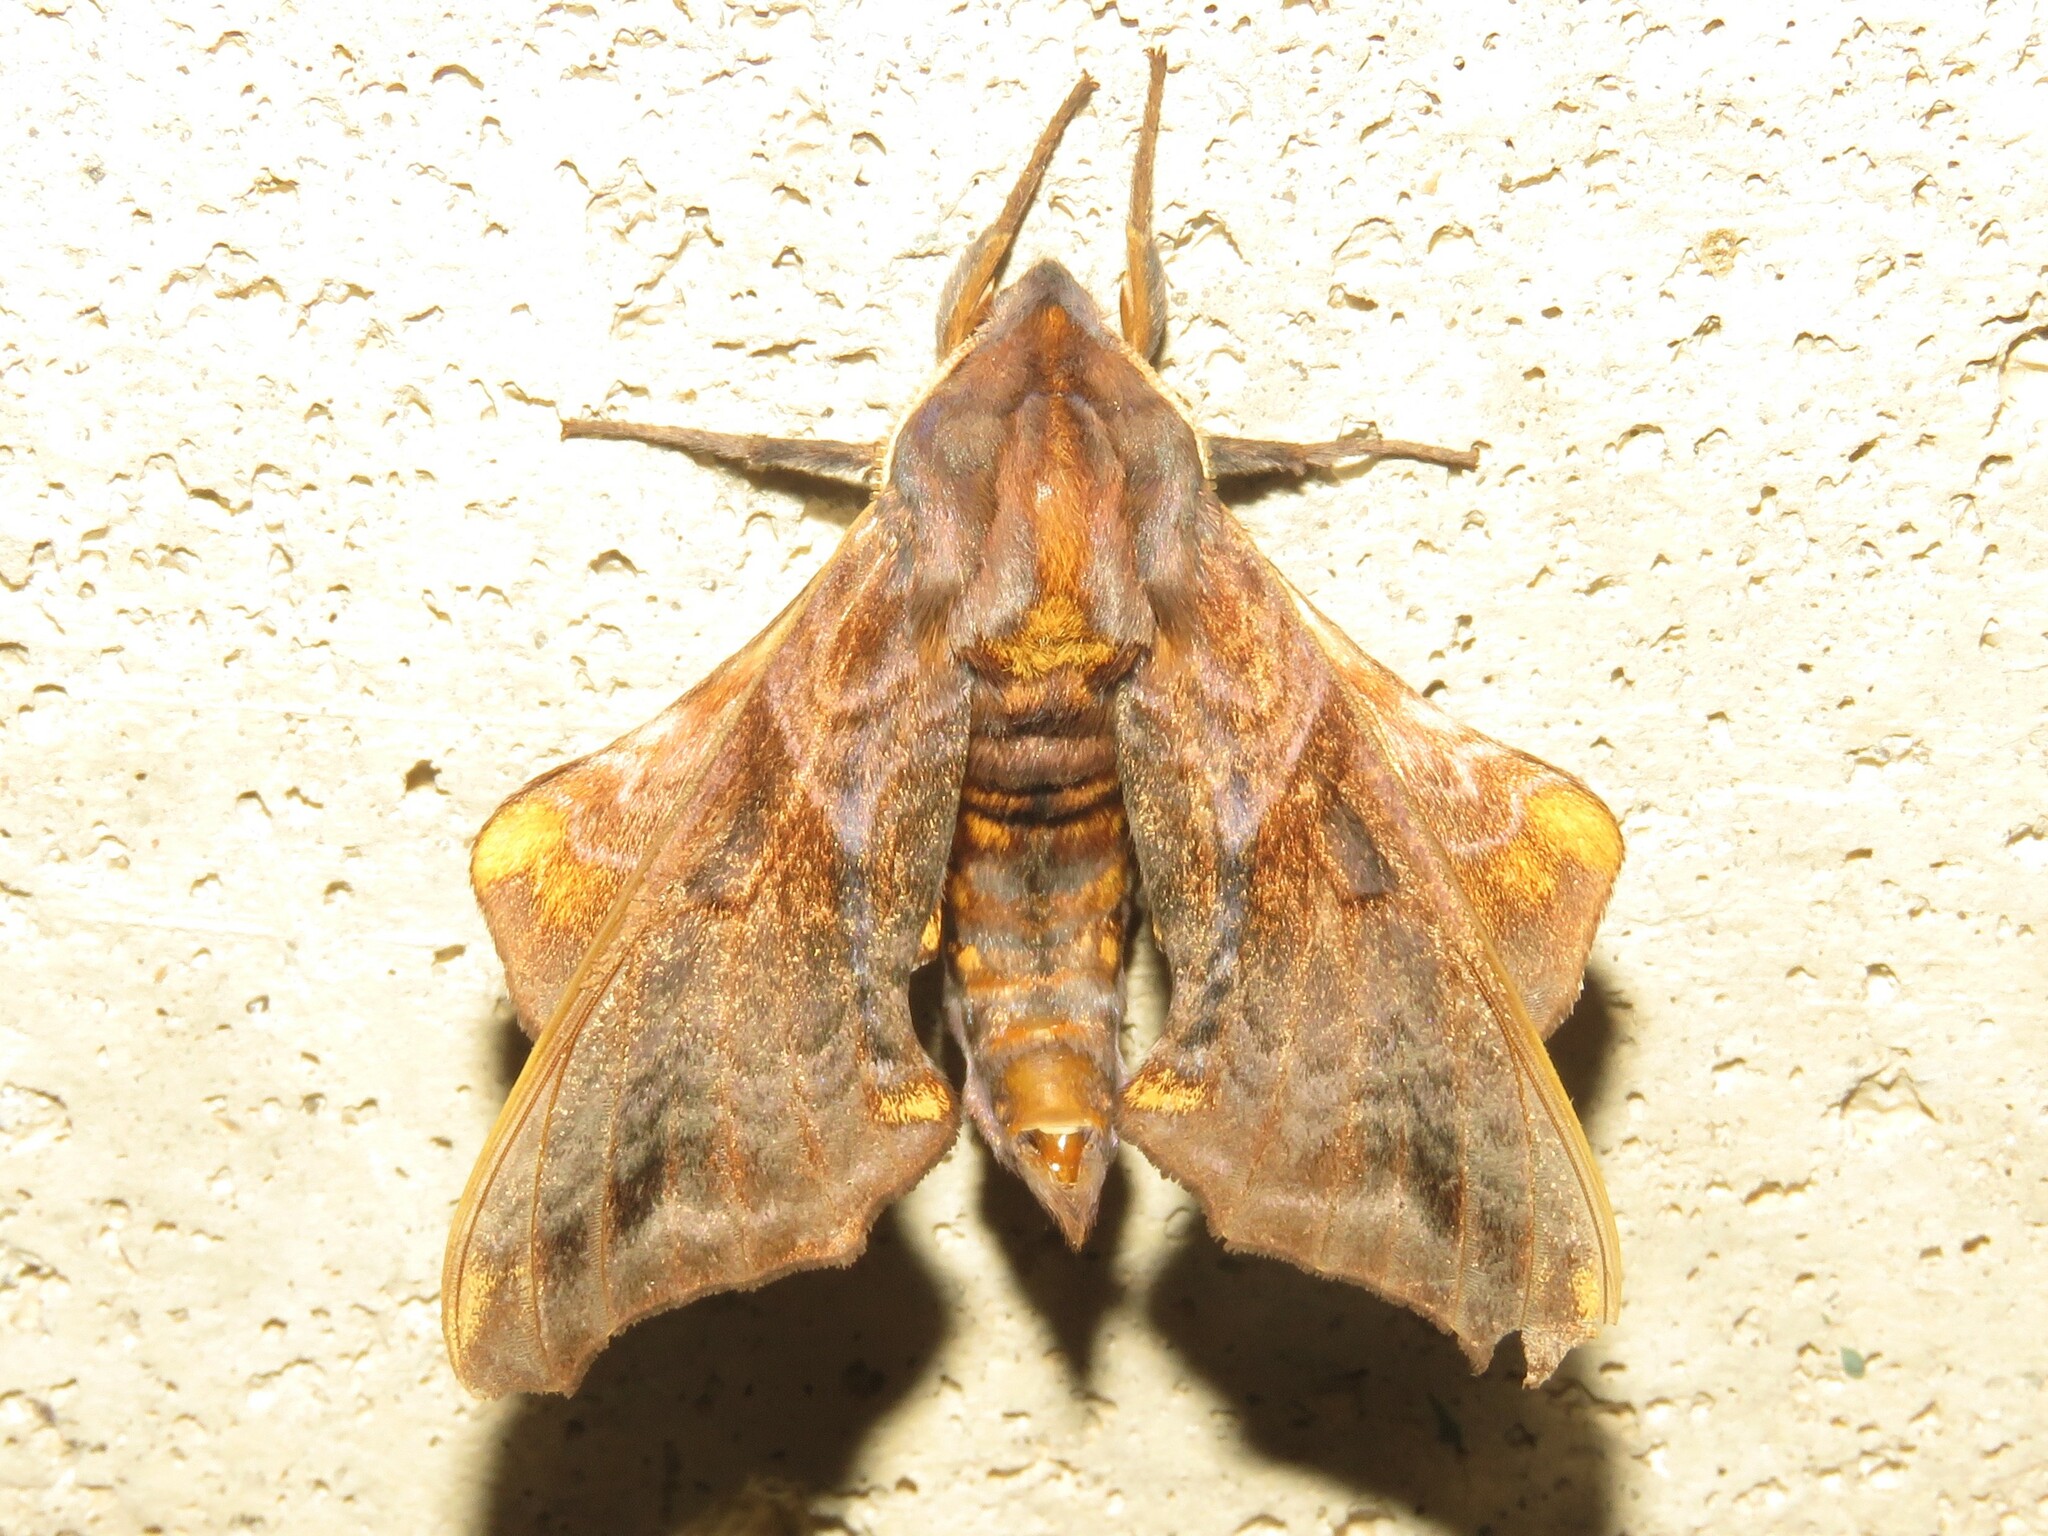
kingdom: Animalia
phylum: Arthropoda
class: Insecta
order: Lepidoptera
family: Sphingidae
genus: Paonias
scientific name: Paonias myops
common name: Small-eyed sphinx
